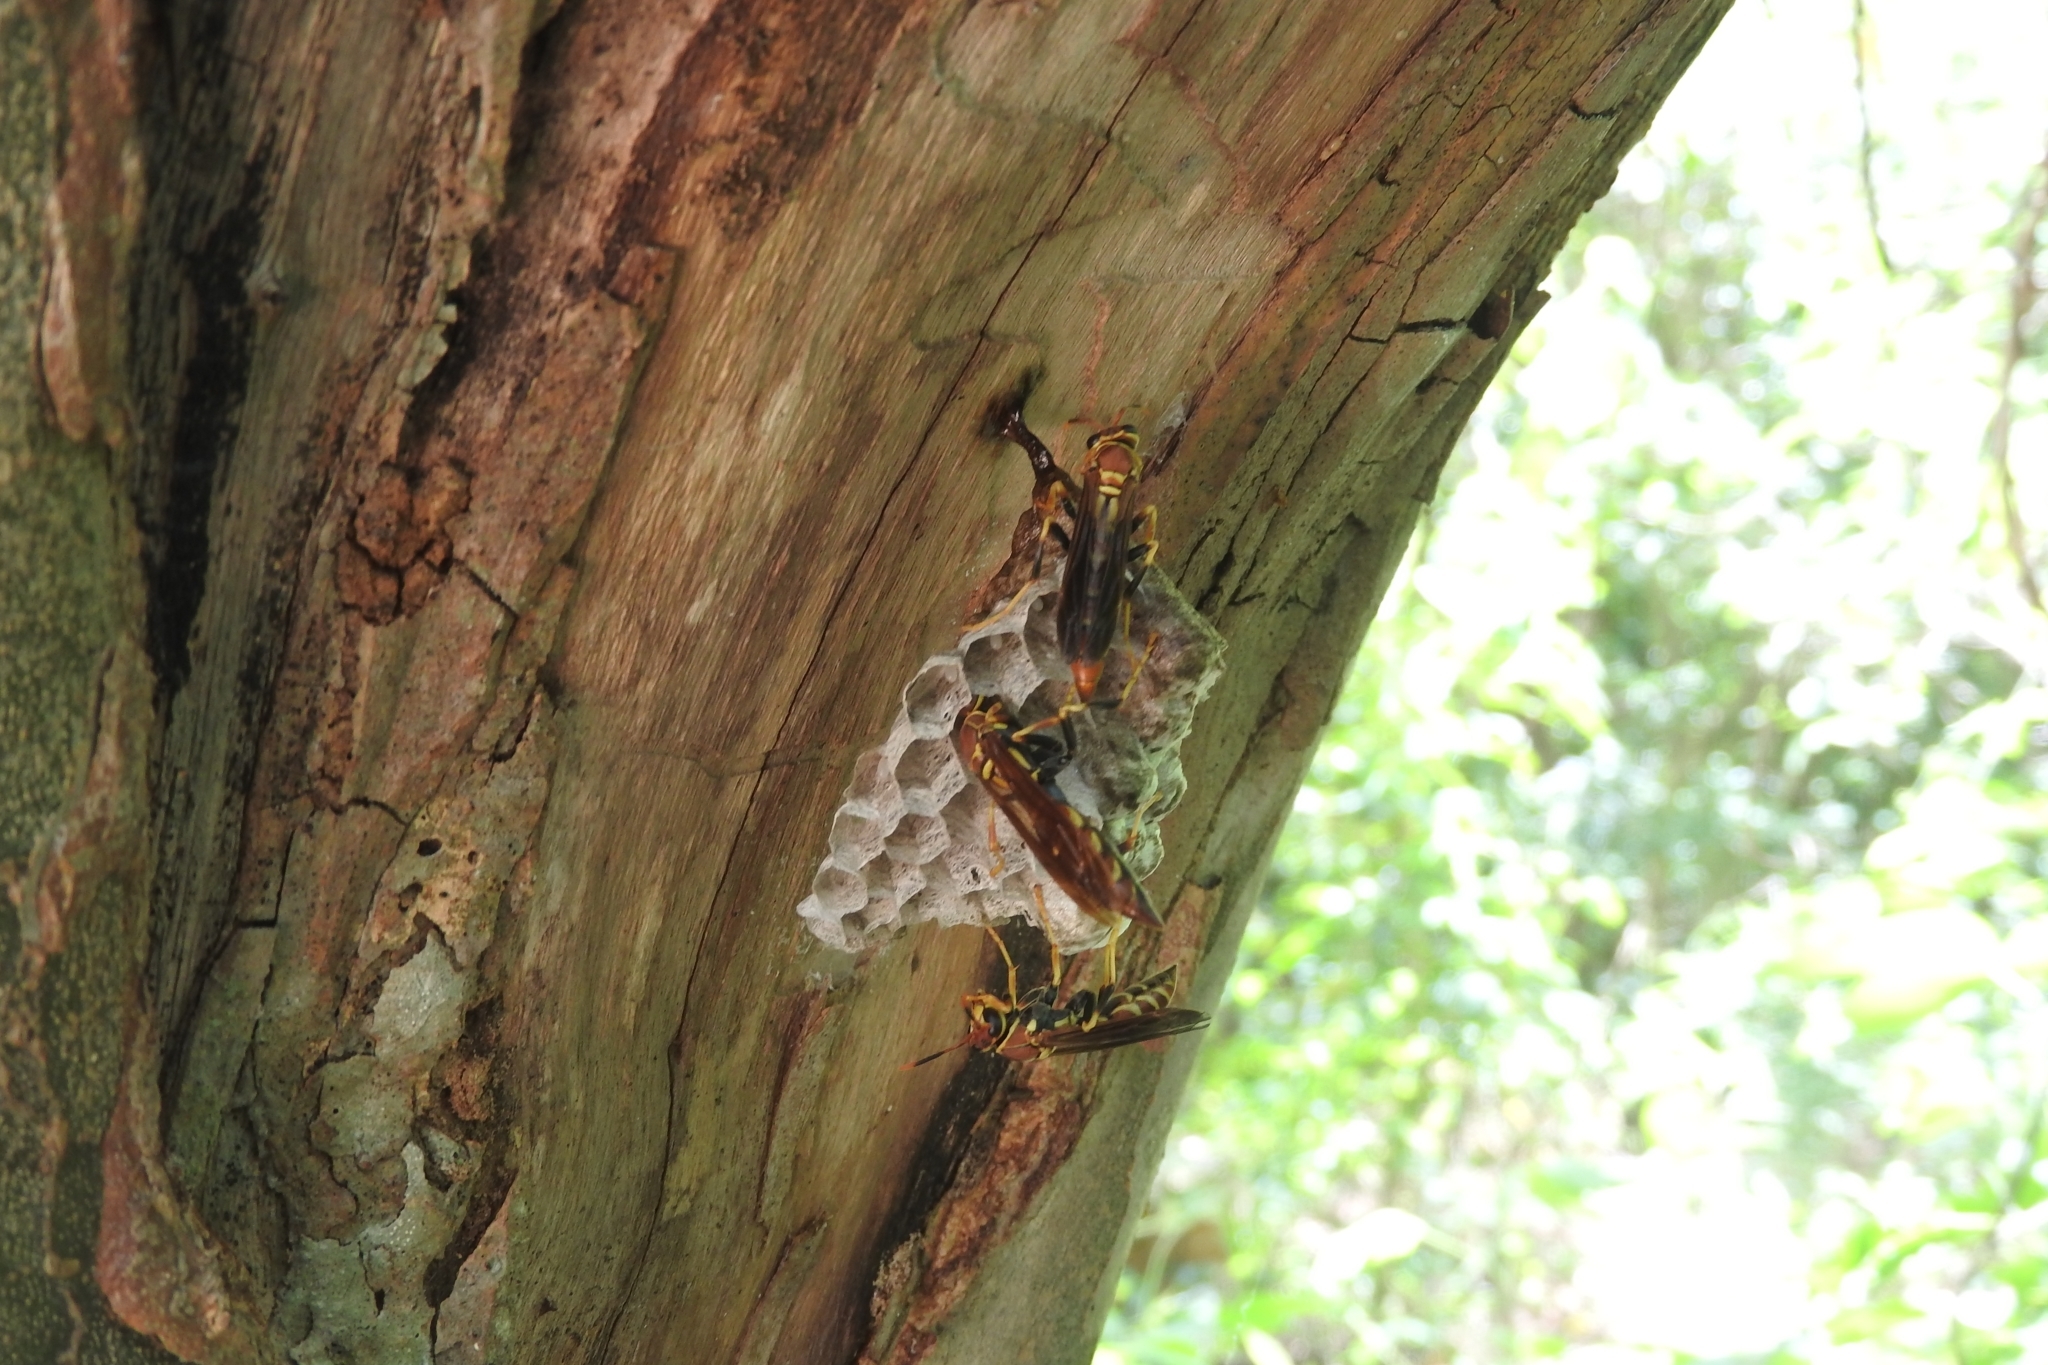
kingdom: Animalia
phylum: Arthropoda
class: Insecta
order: Hymenoptera
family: Eumenidae
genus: Polistes
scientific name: Polistes instabilis
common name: Unstable paper wasp
